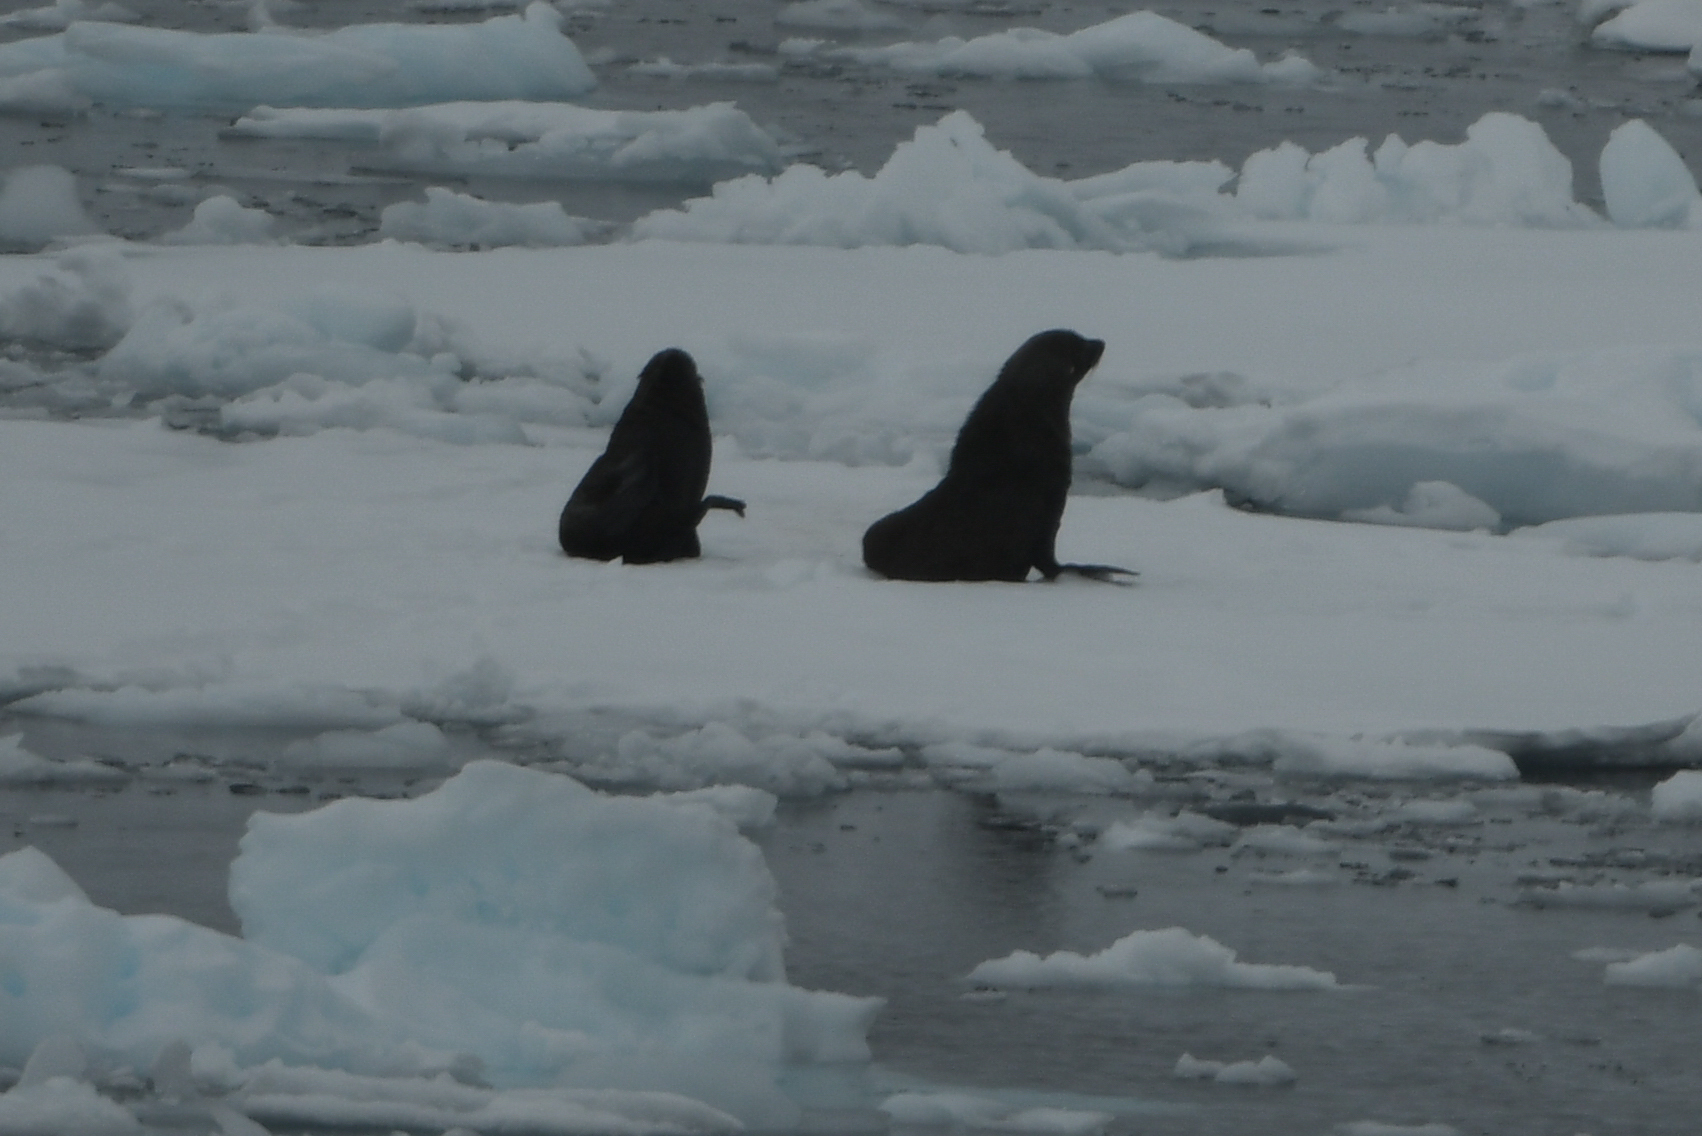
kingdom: Animalia
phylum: Chordata
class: Mammalia
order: Carnivora
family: Otariidae
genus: Arctocephalus
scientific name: Arctocephalus gazella
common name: Antarctic fur seal
